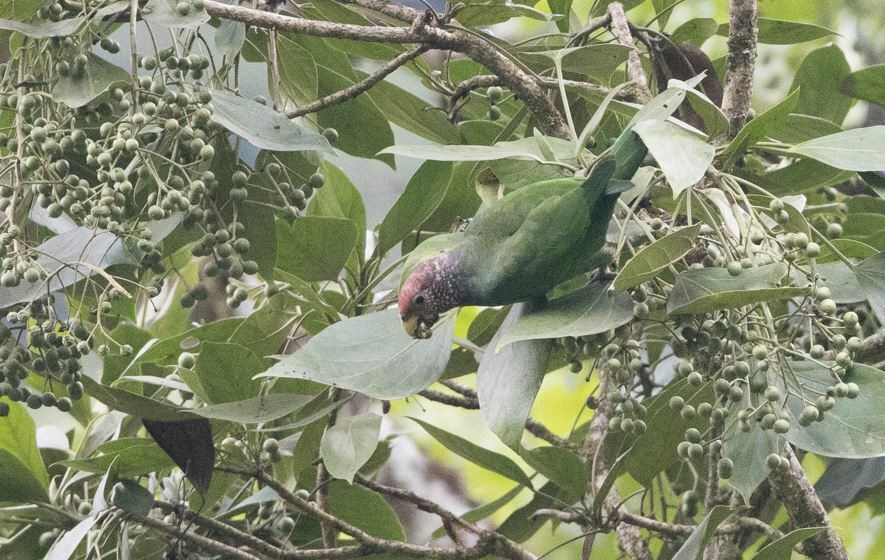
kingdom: Animalia
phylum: Chordata
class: Aves
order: Psittaciformes
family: Psittacidae
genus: Pionus
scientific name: Pionus tumultuosus
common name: Plum-crowned parrot
